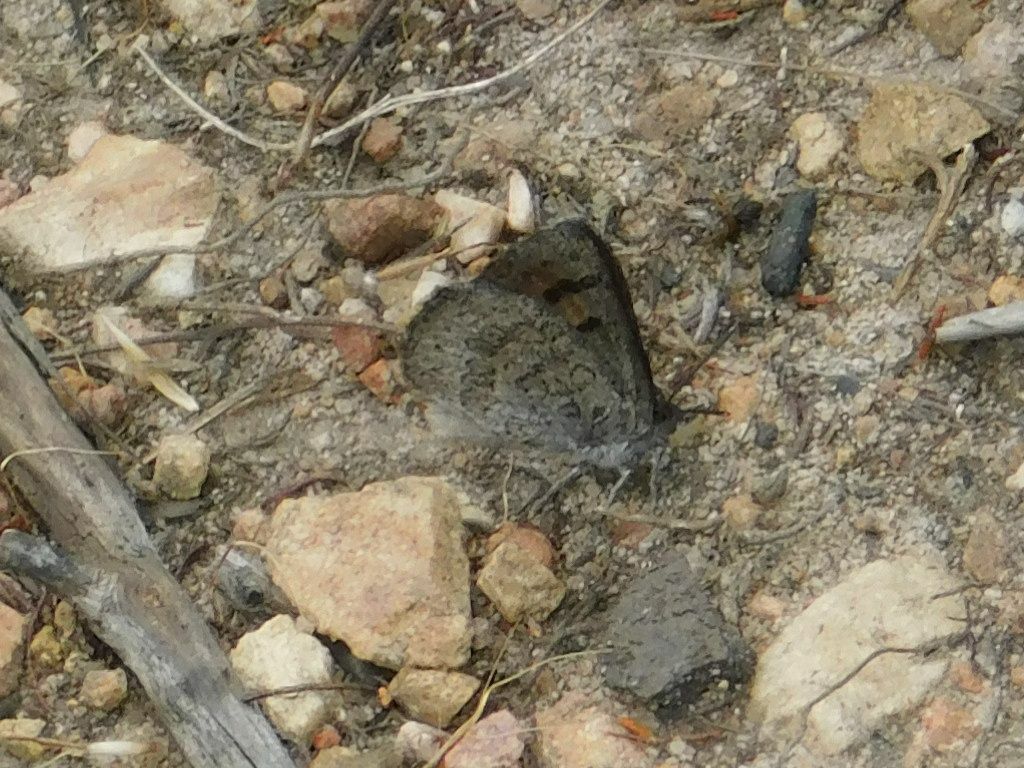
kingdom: Animalia
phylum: Arthropoda
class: Insecta
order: Lepidoptera
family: Lycaenidae
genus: Thestor
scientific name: Thestor montanus
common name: Mountain skolly
